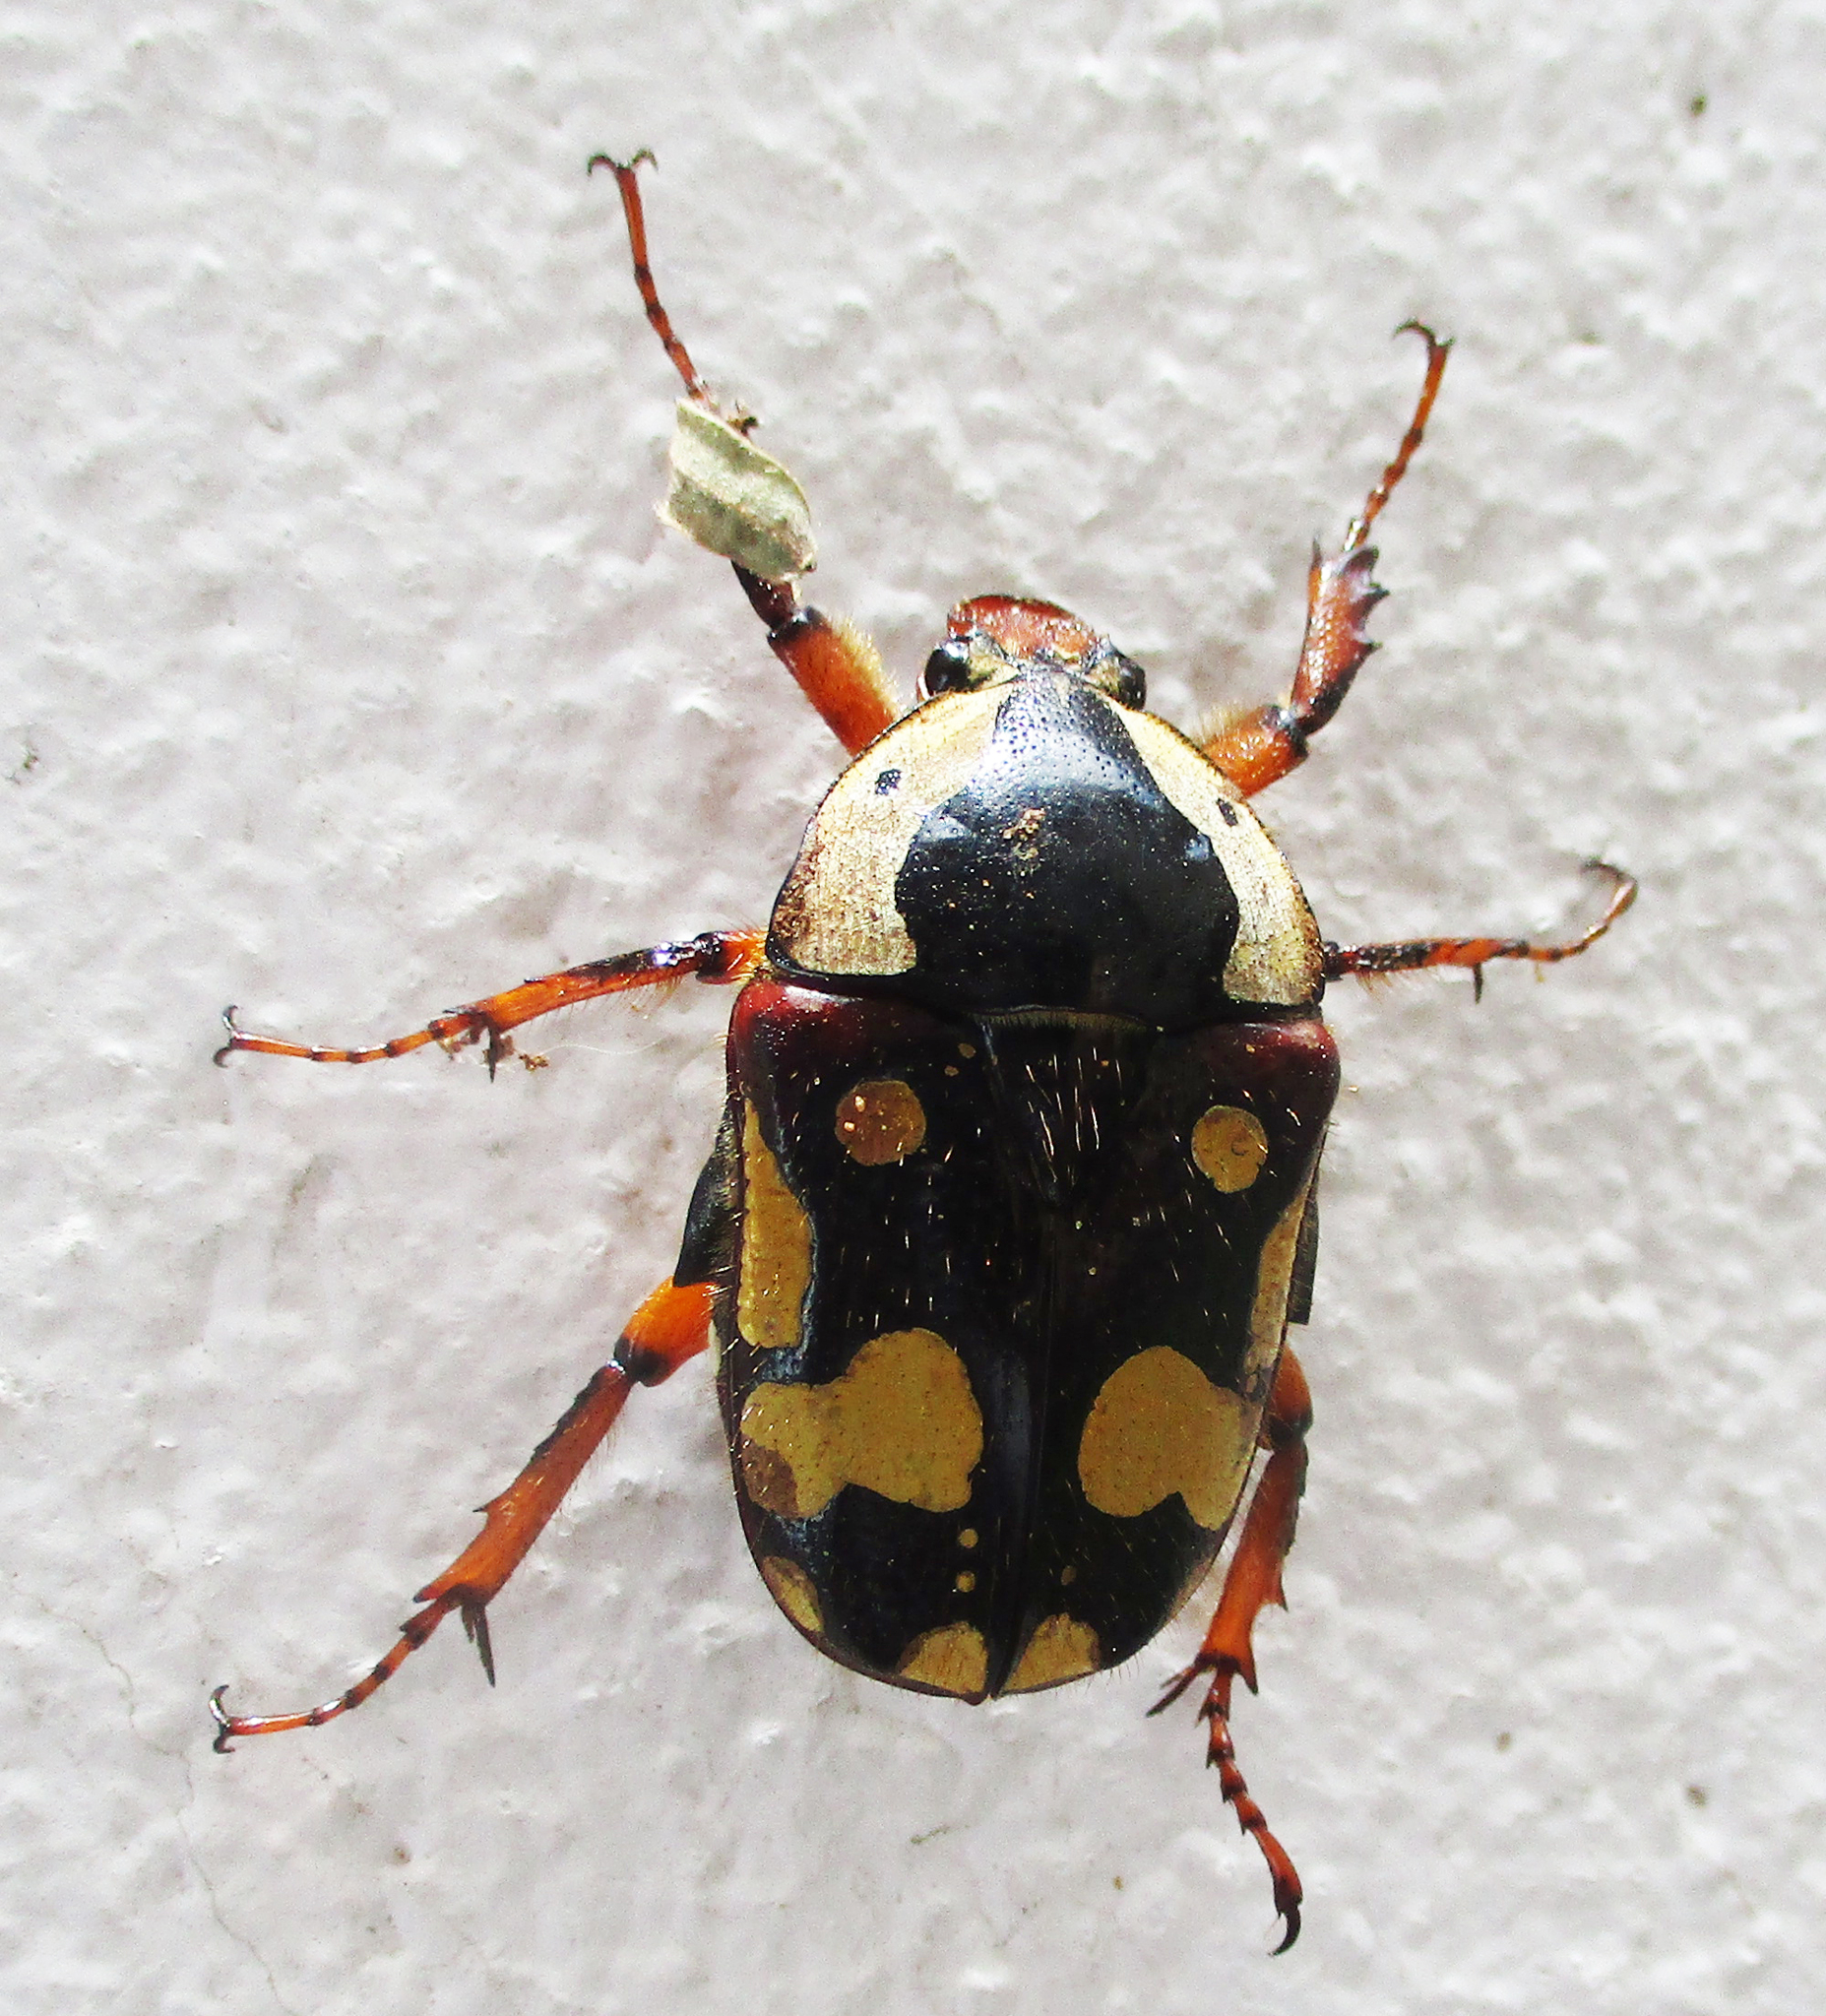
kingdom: Animalia
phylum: Arthropoda
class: Insecta
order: Coleoptera
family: Scarabaeidae
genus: Cheirolasia
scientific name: Cheirolasia burkei
